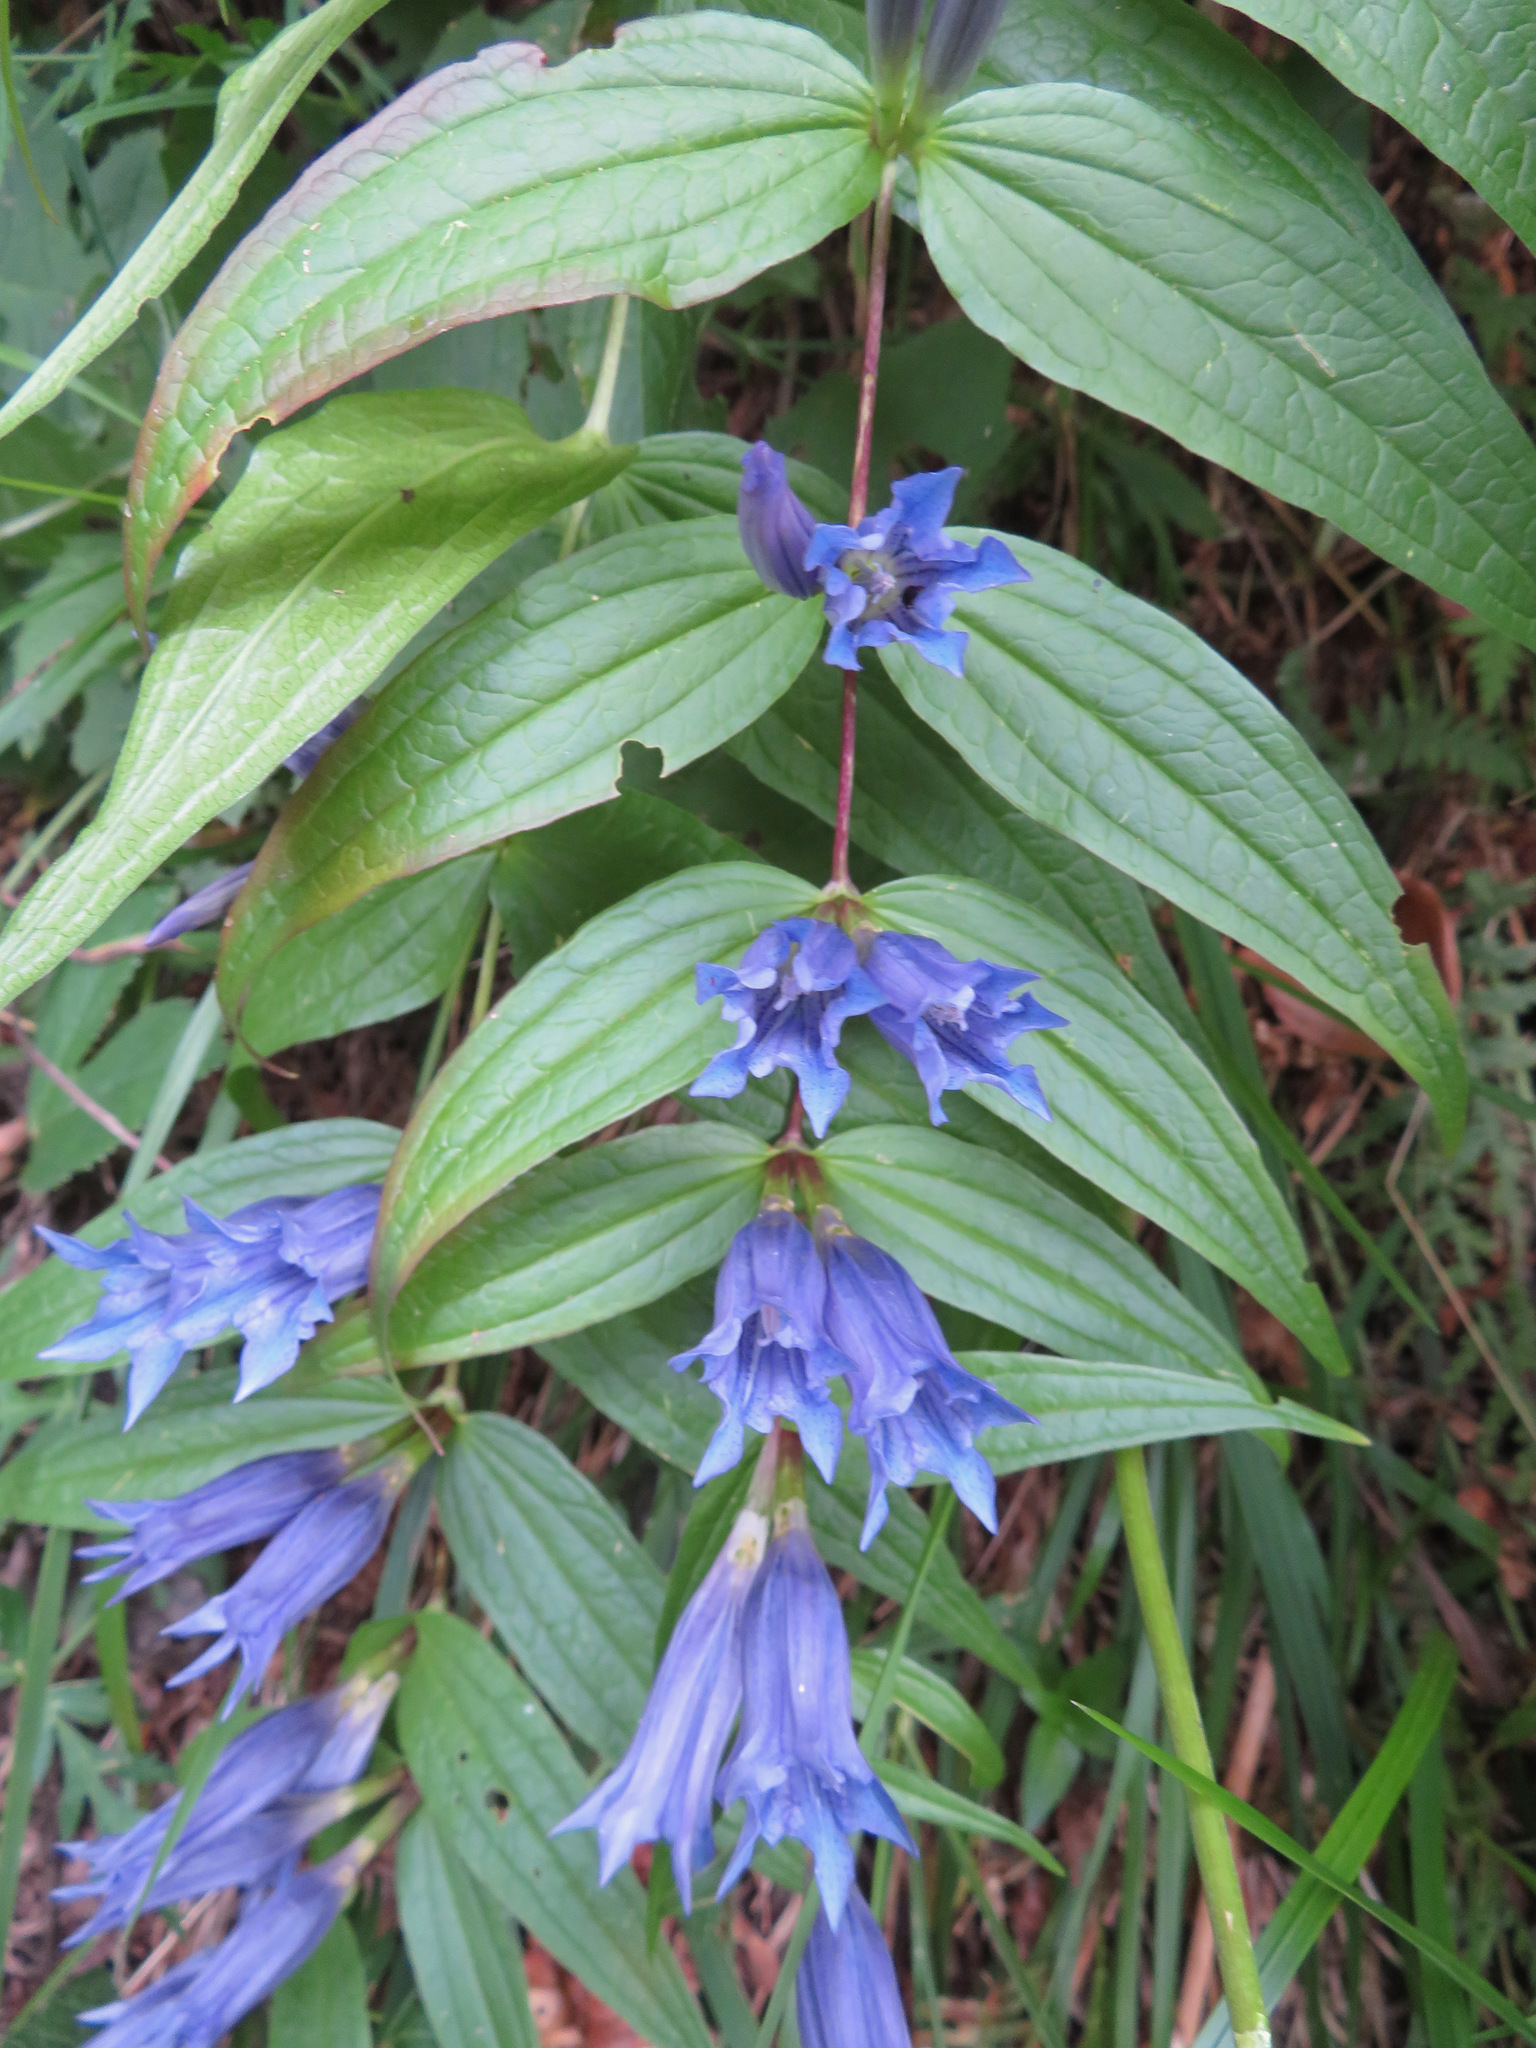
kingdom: Plantae
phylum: Tracheophyta
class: Magnoliopsida
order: Gentianales
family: Gentianaceae
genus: Gentiana
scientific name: Gentiana asclepiadea
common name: Willow gentian
